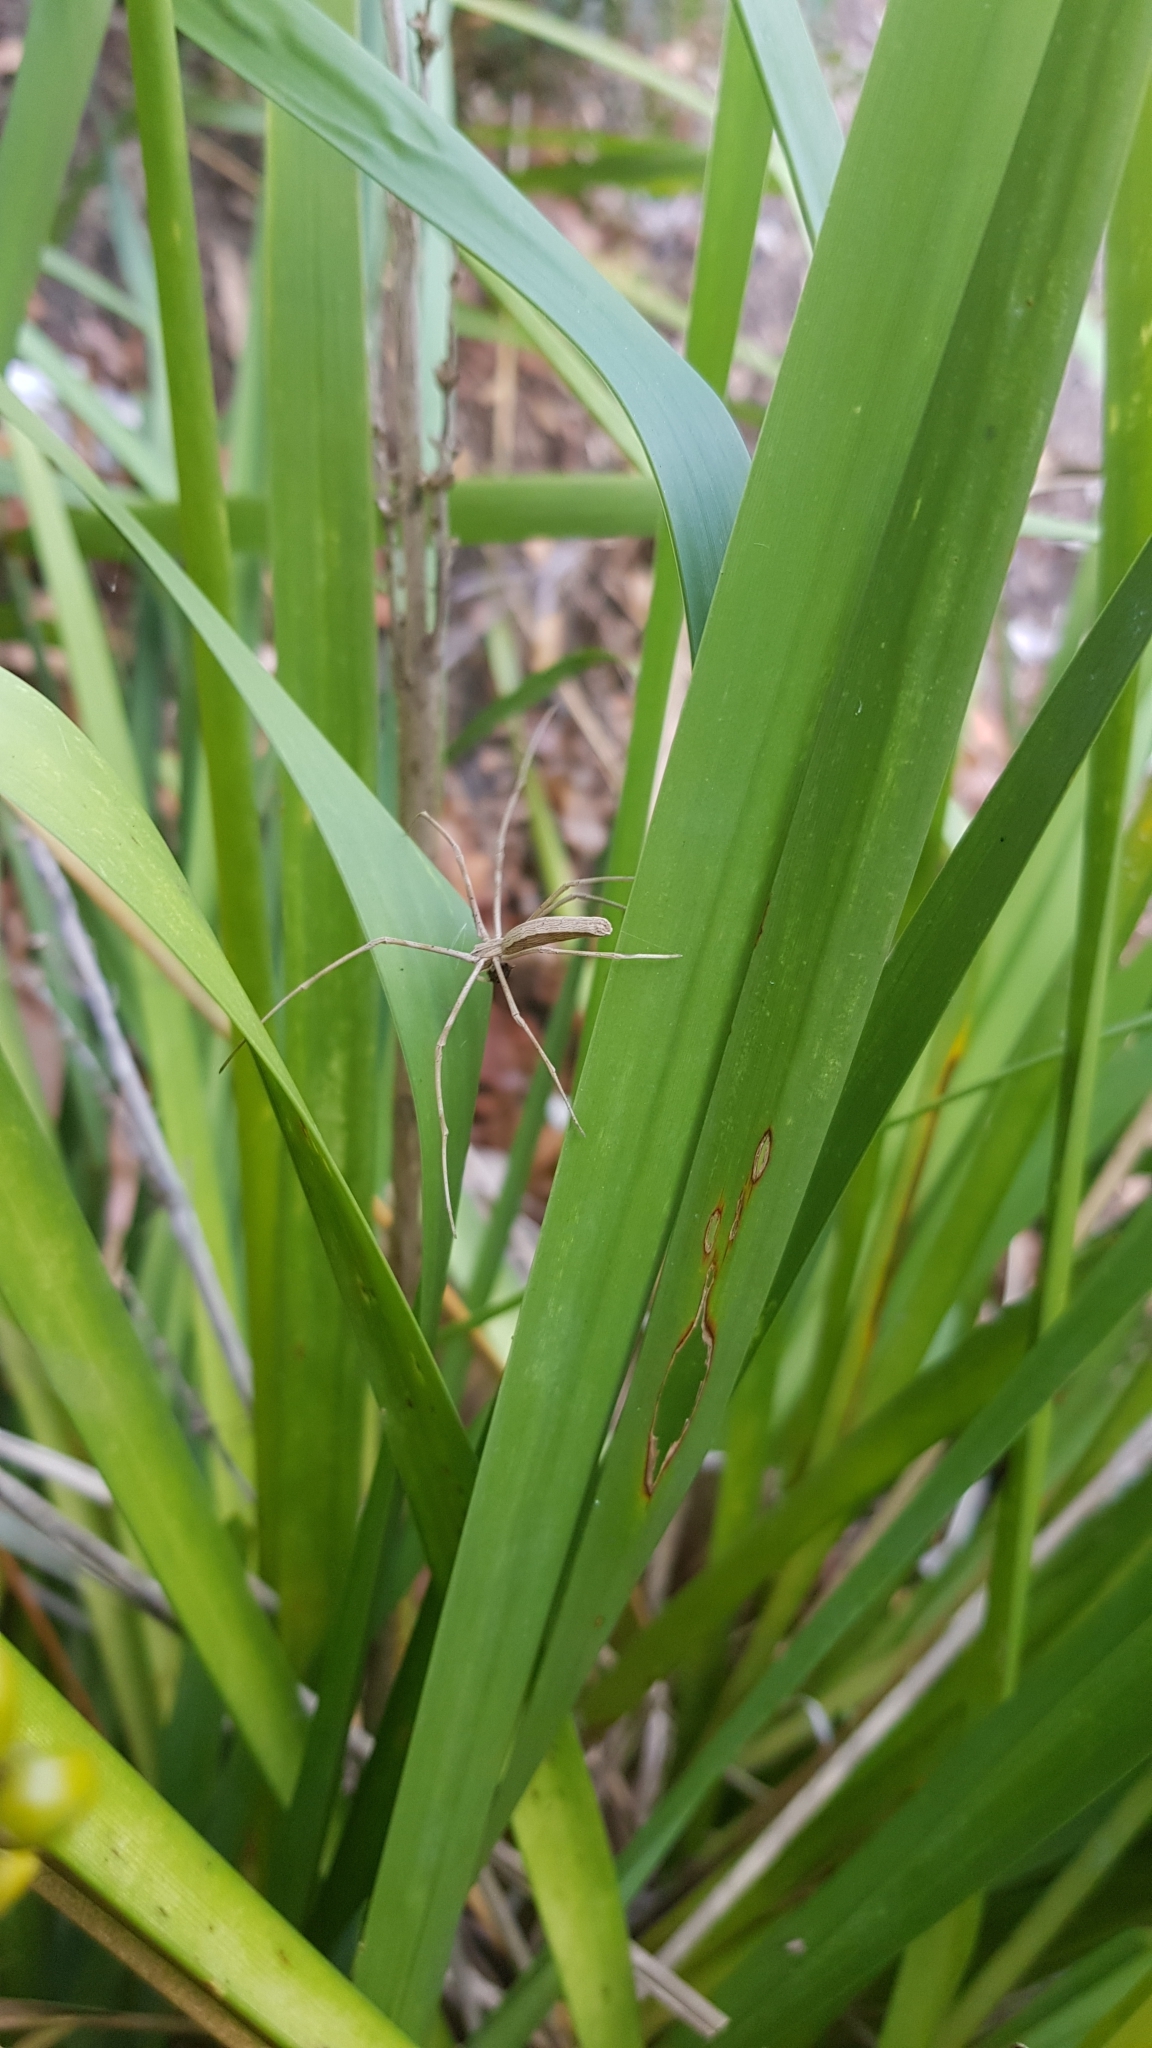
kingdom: Animalia
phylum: Arthropoda
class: Arachnida
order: Araneae
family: Deinopidae
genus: Deinopis
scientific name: Deinopis subrufa
